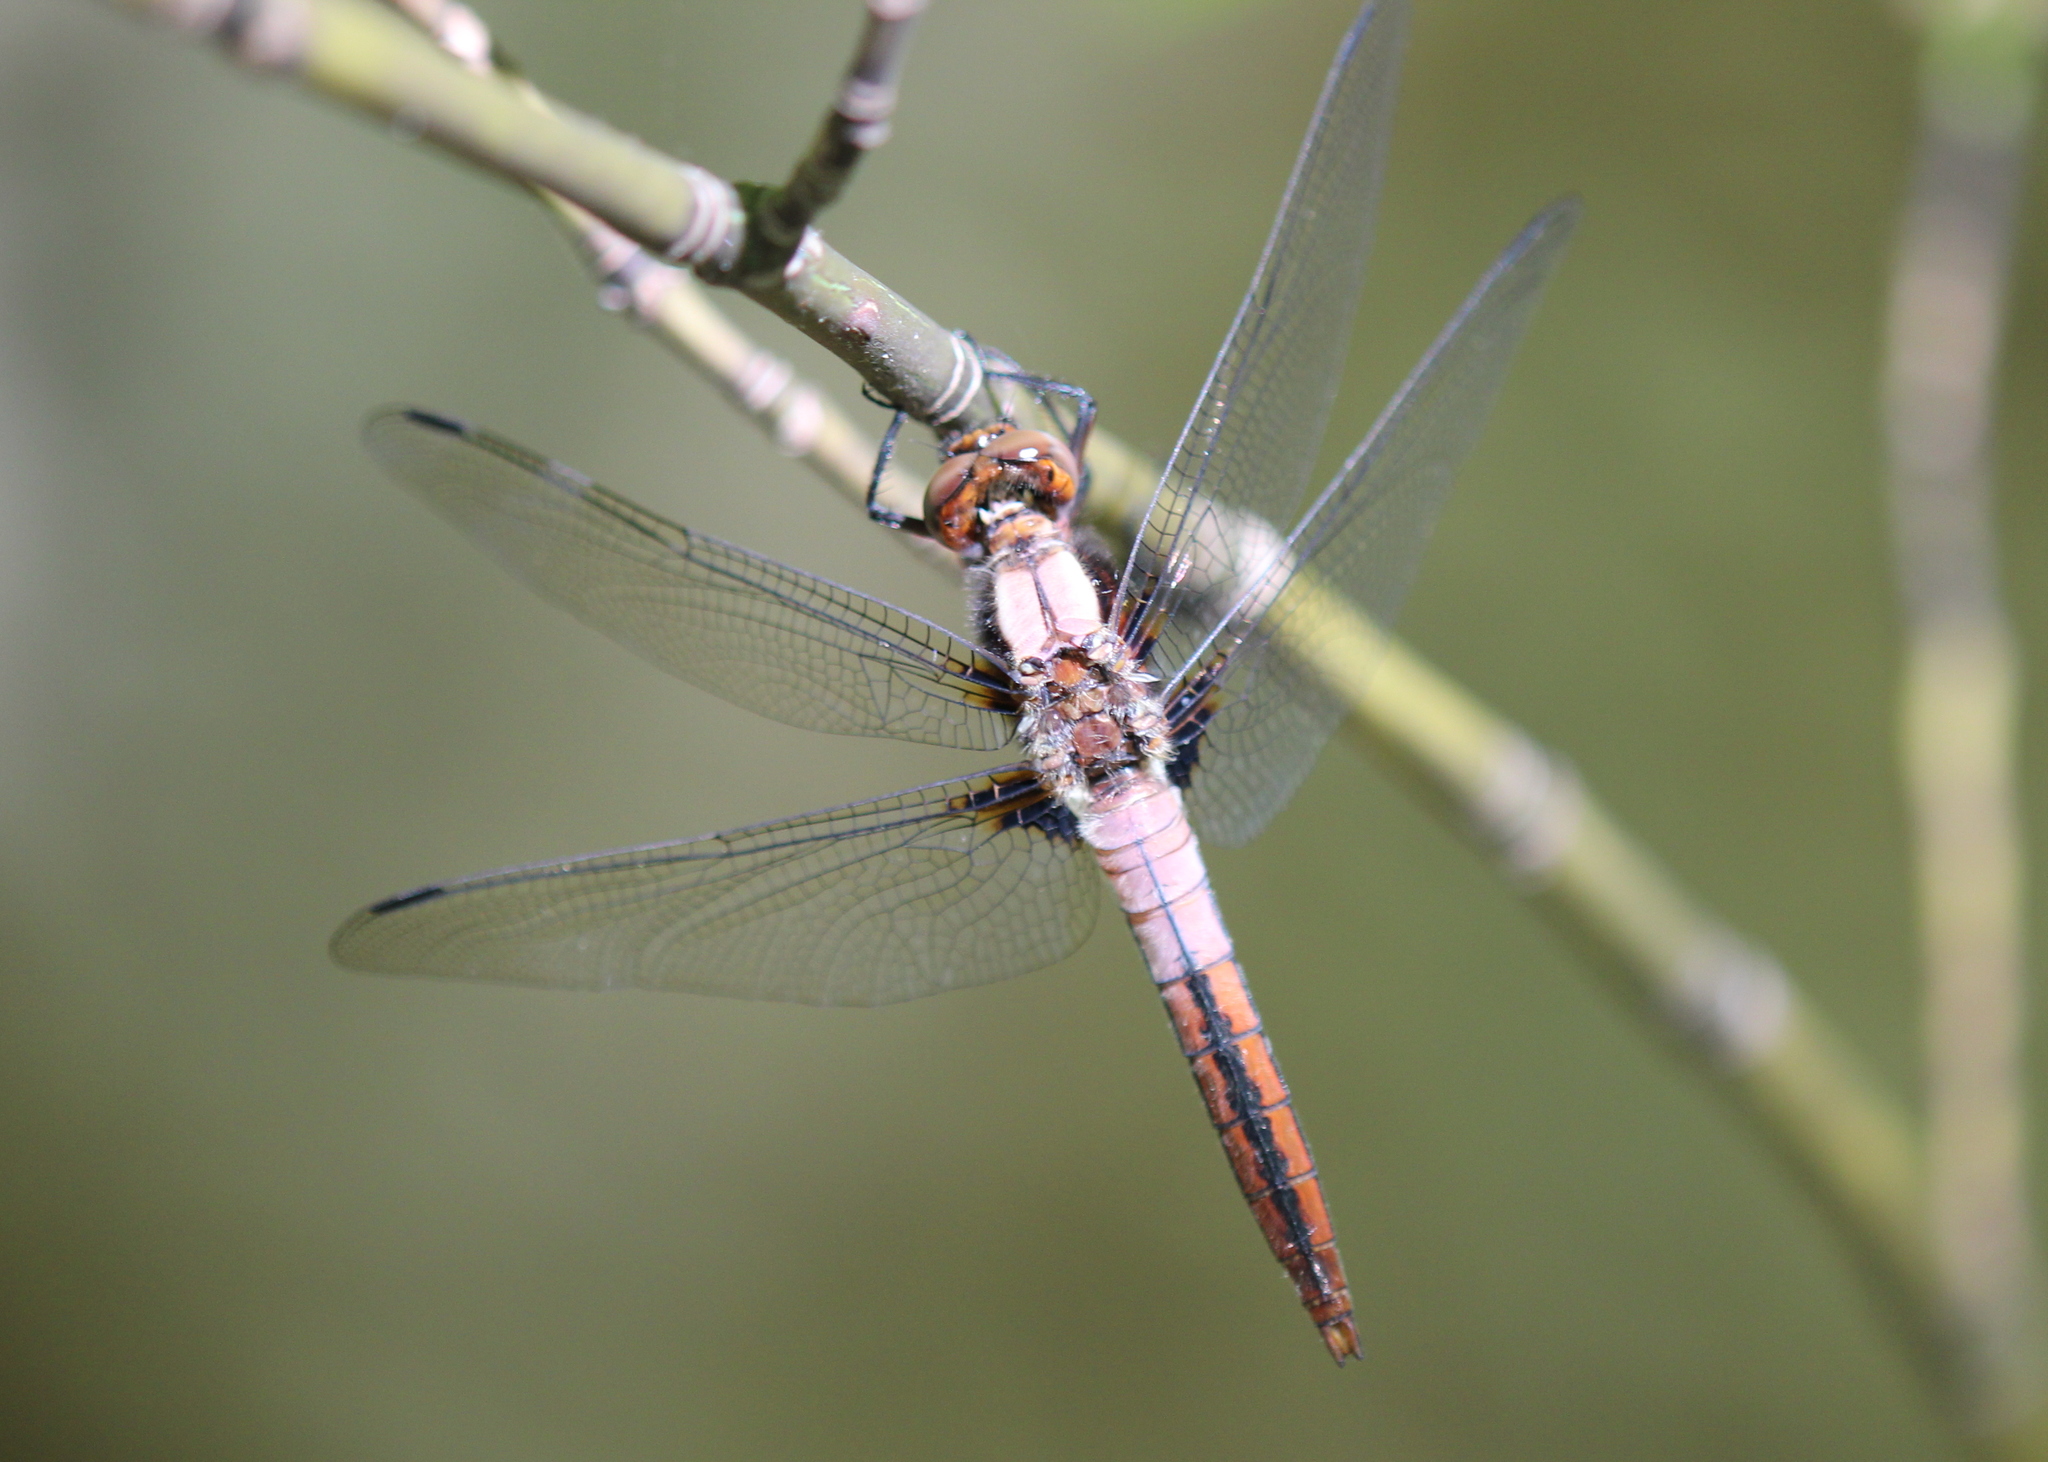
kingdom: Animalia
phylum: Arthropoda
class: Insecta
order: Odonata
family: Libellulidae
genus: Ladona
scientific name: Ladona julia
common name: Chalk-fronted corporal
